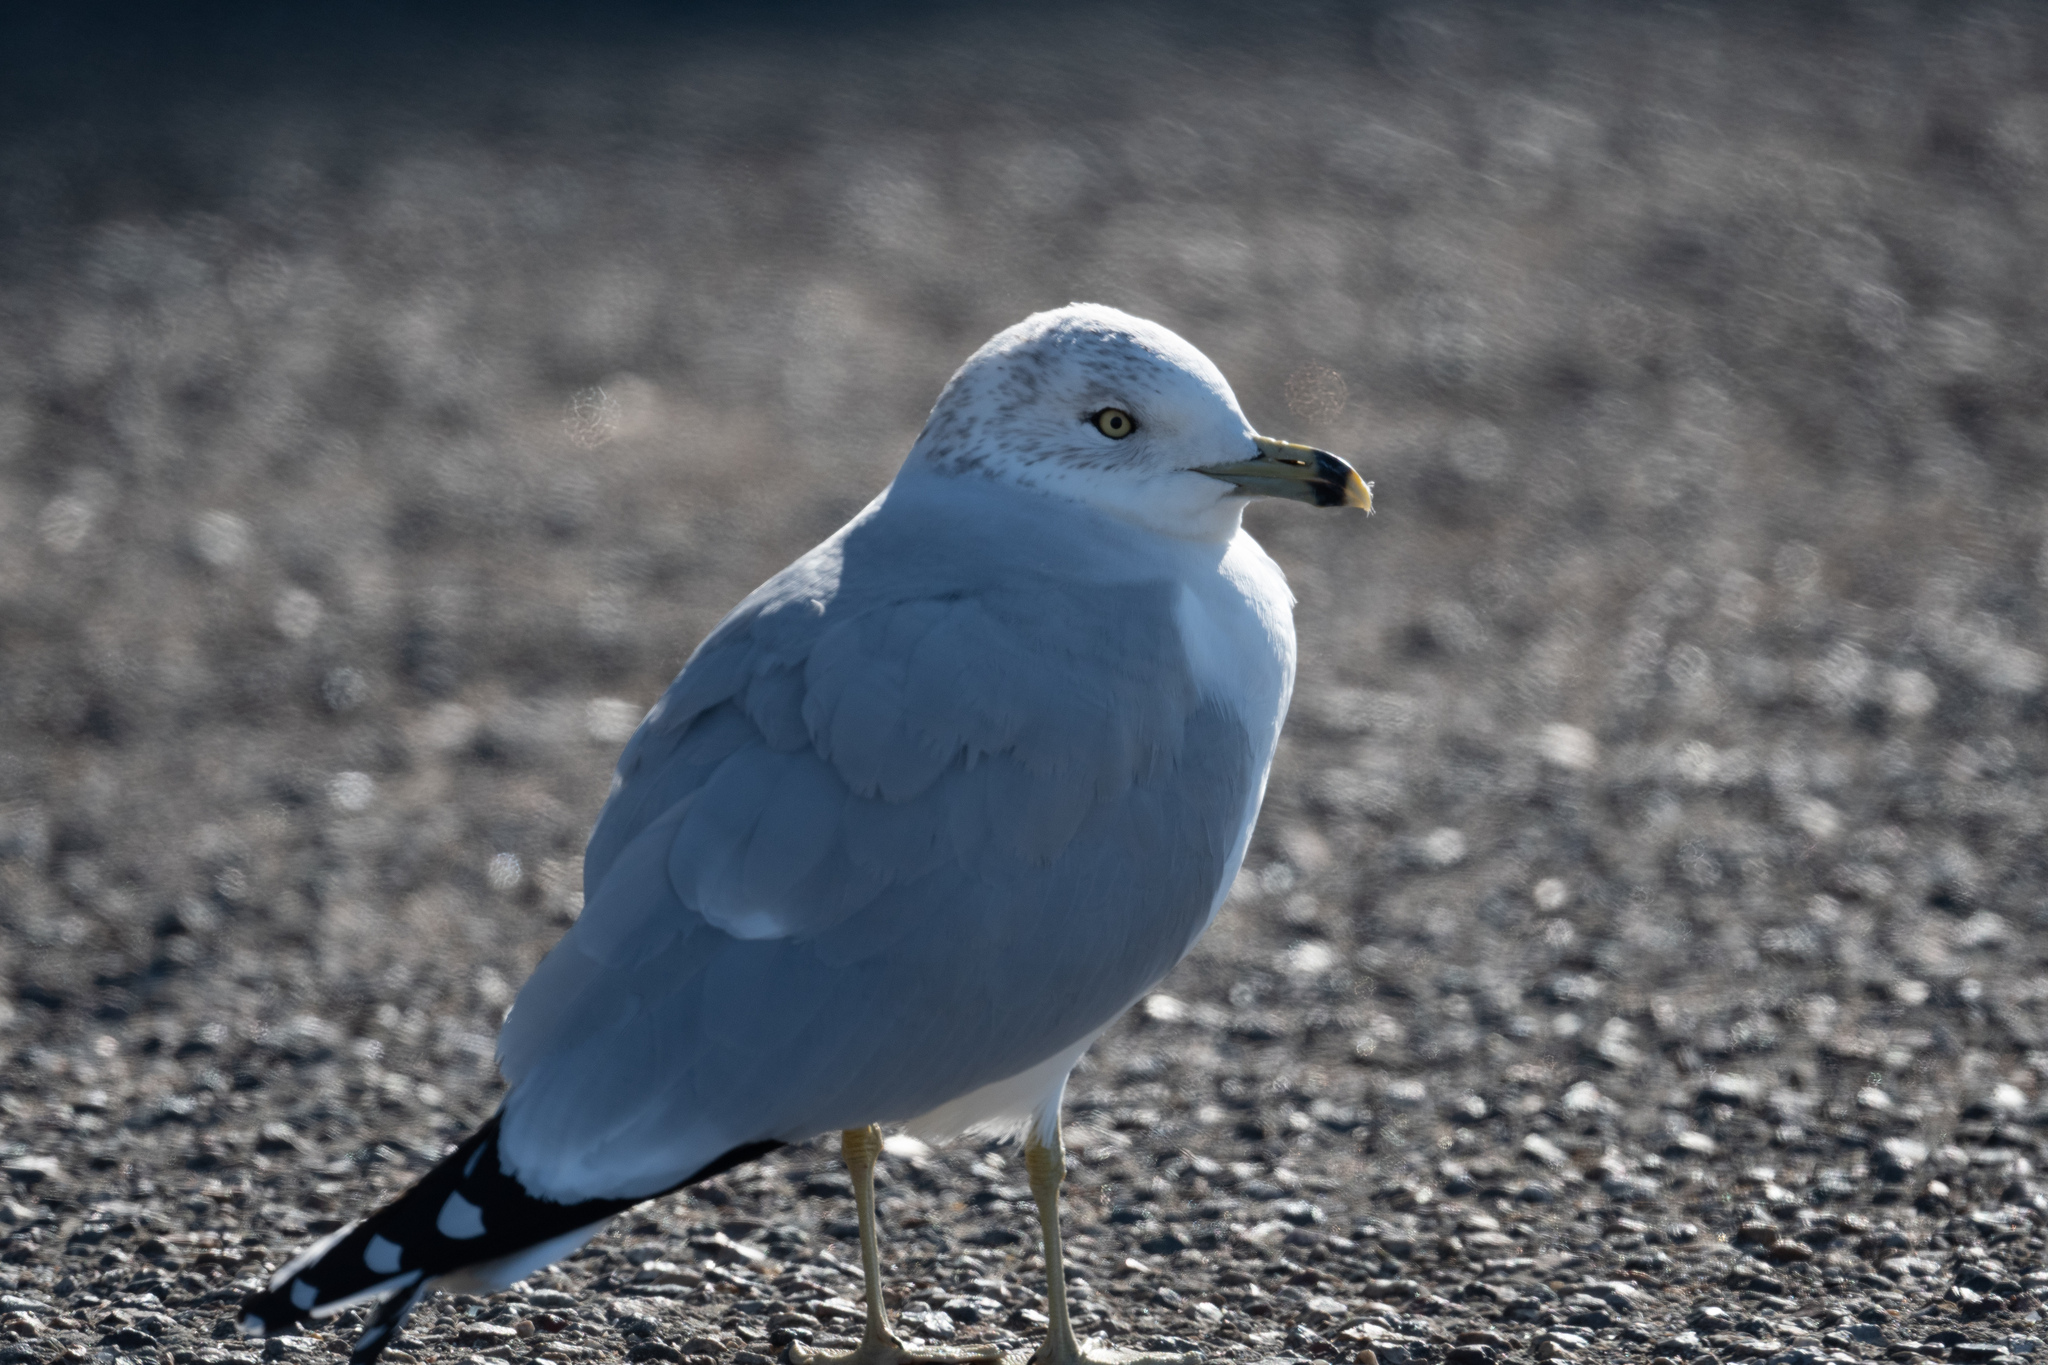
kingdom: Animalia
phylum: Chordata
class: Aves
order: Charadriiformes
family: Laridae
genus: Larus
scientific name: Larus delawarensis
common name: Ring-billed gull
